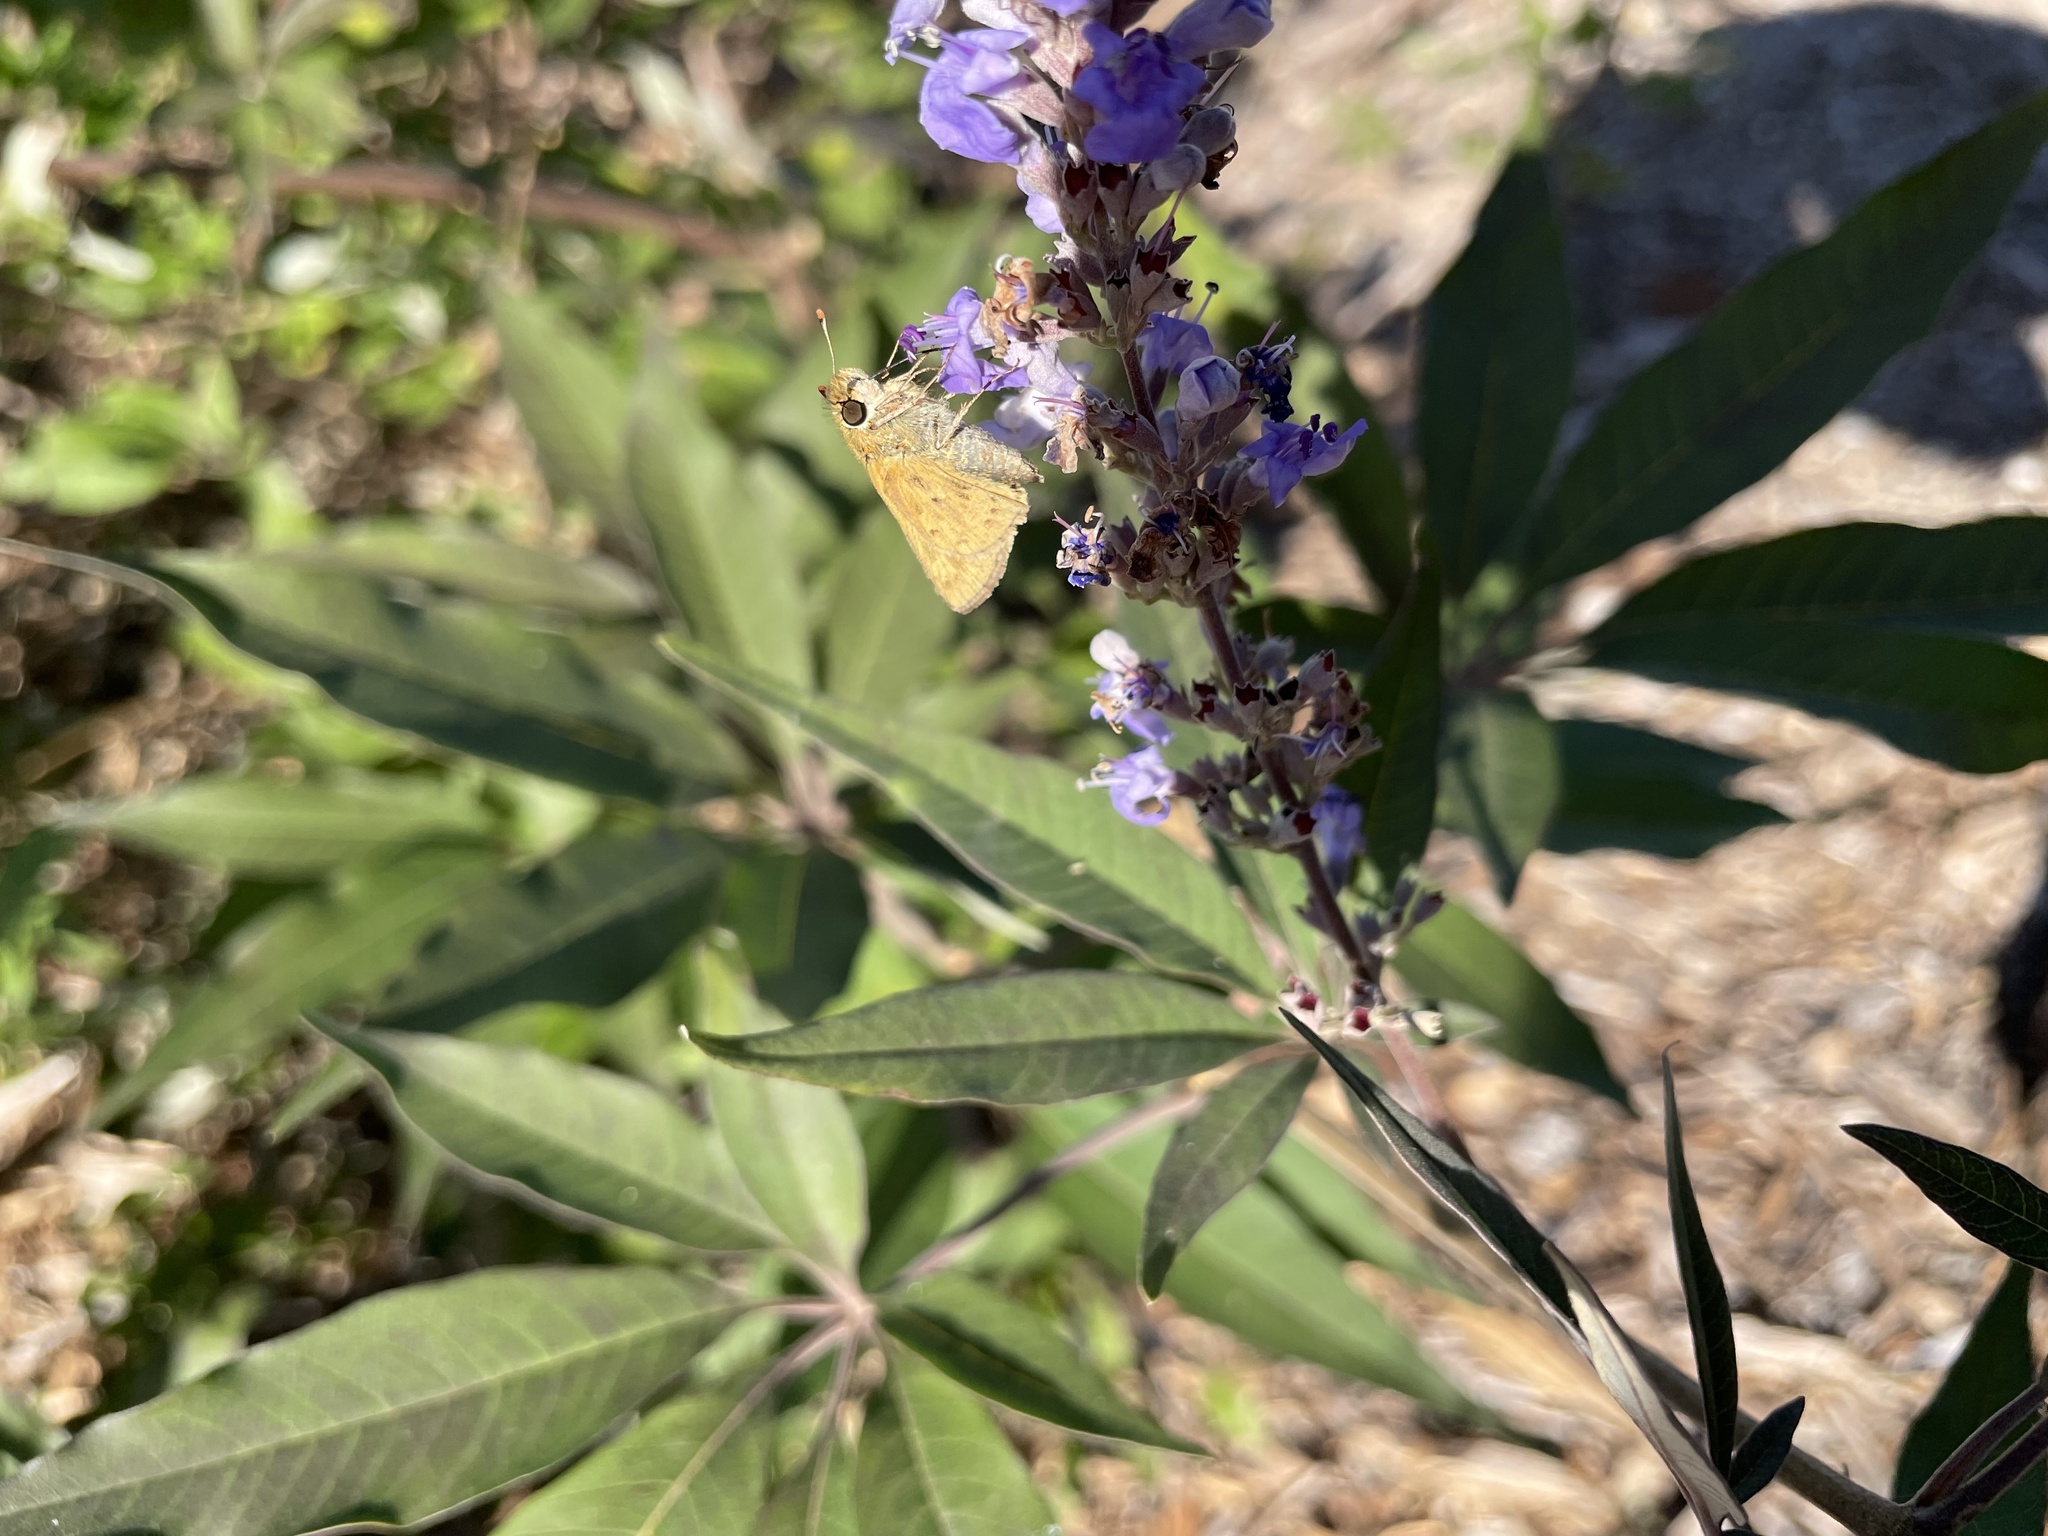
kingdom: Animalia
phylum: Arthropoda
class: Insecta
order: Lepidoptera
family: Hesperiidae
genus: Hylephila
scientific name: Hylephila phyleus
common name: Fiery skipper
